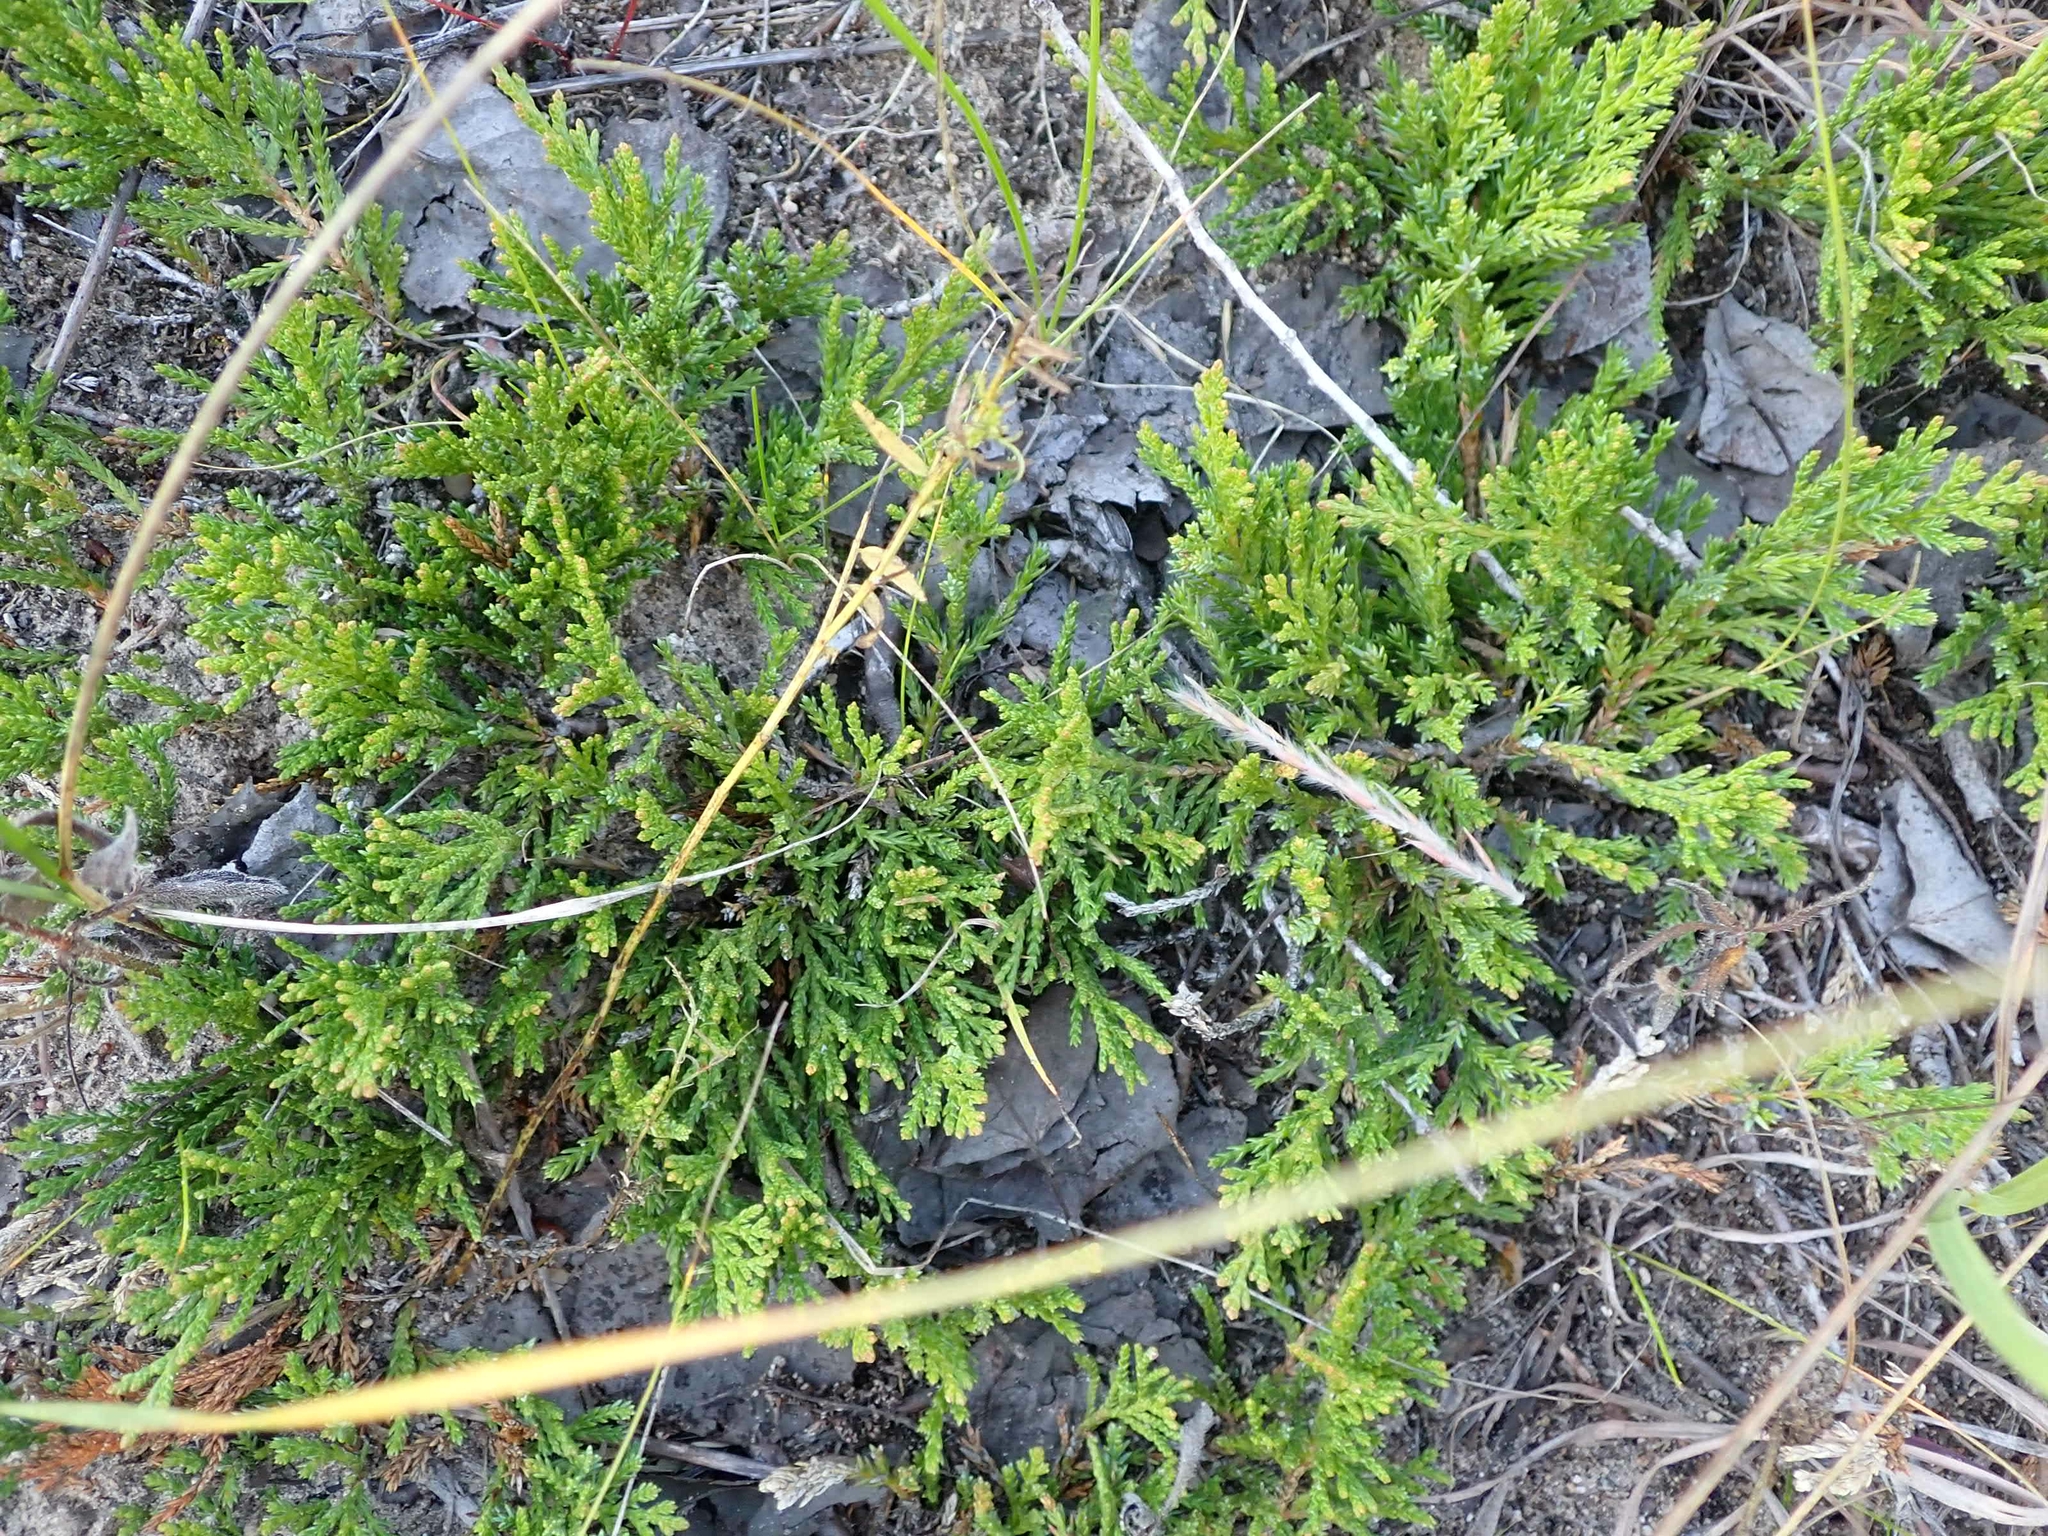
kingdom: Plantae
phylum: Tracheophyta
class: Pinopsida
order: Pinales
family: Cupressaceae
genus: Juniperus
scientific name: Juniperus horizontalis
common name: Creeping juniper
